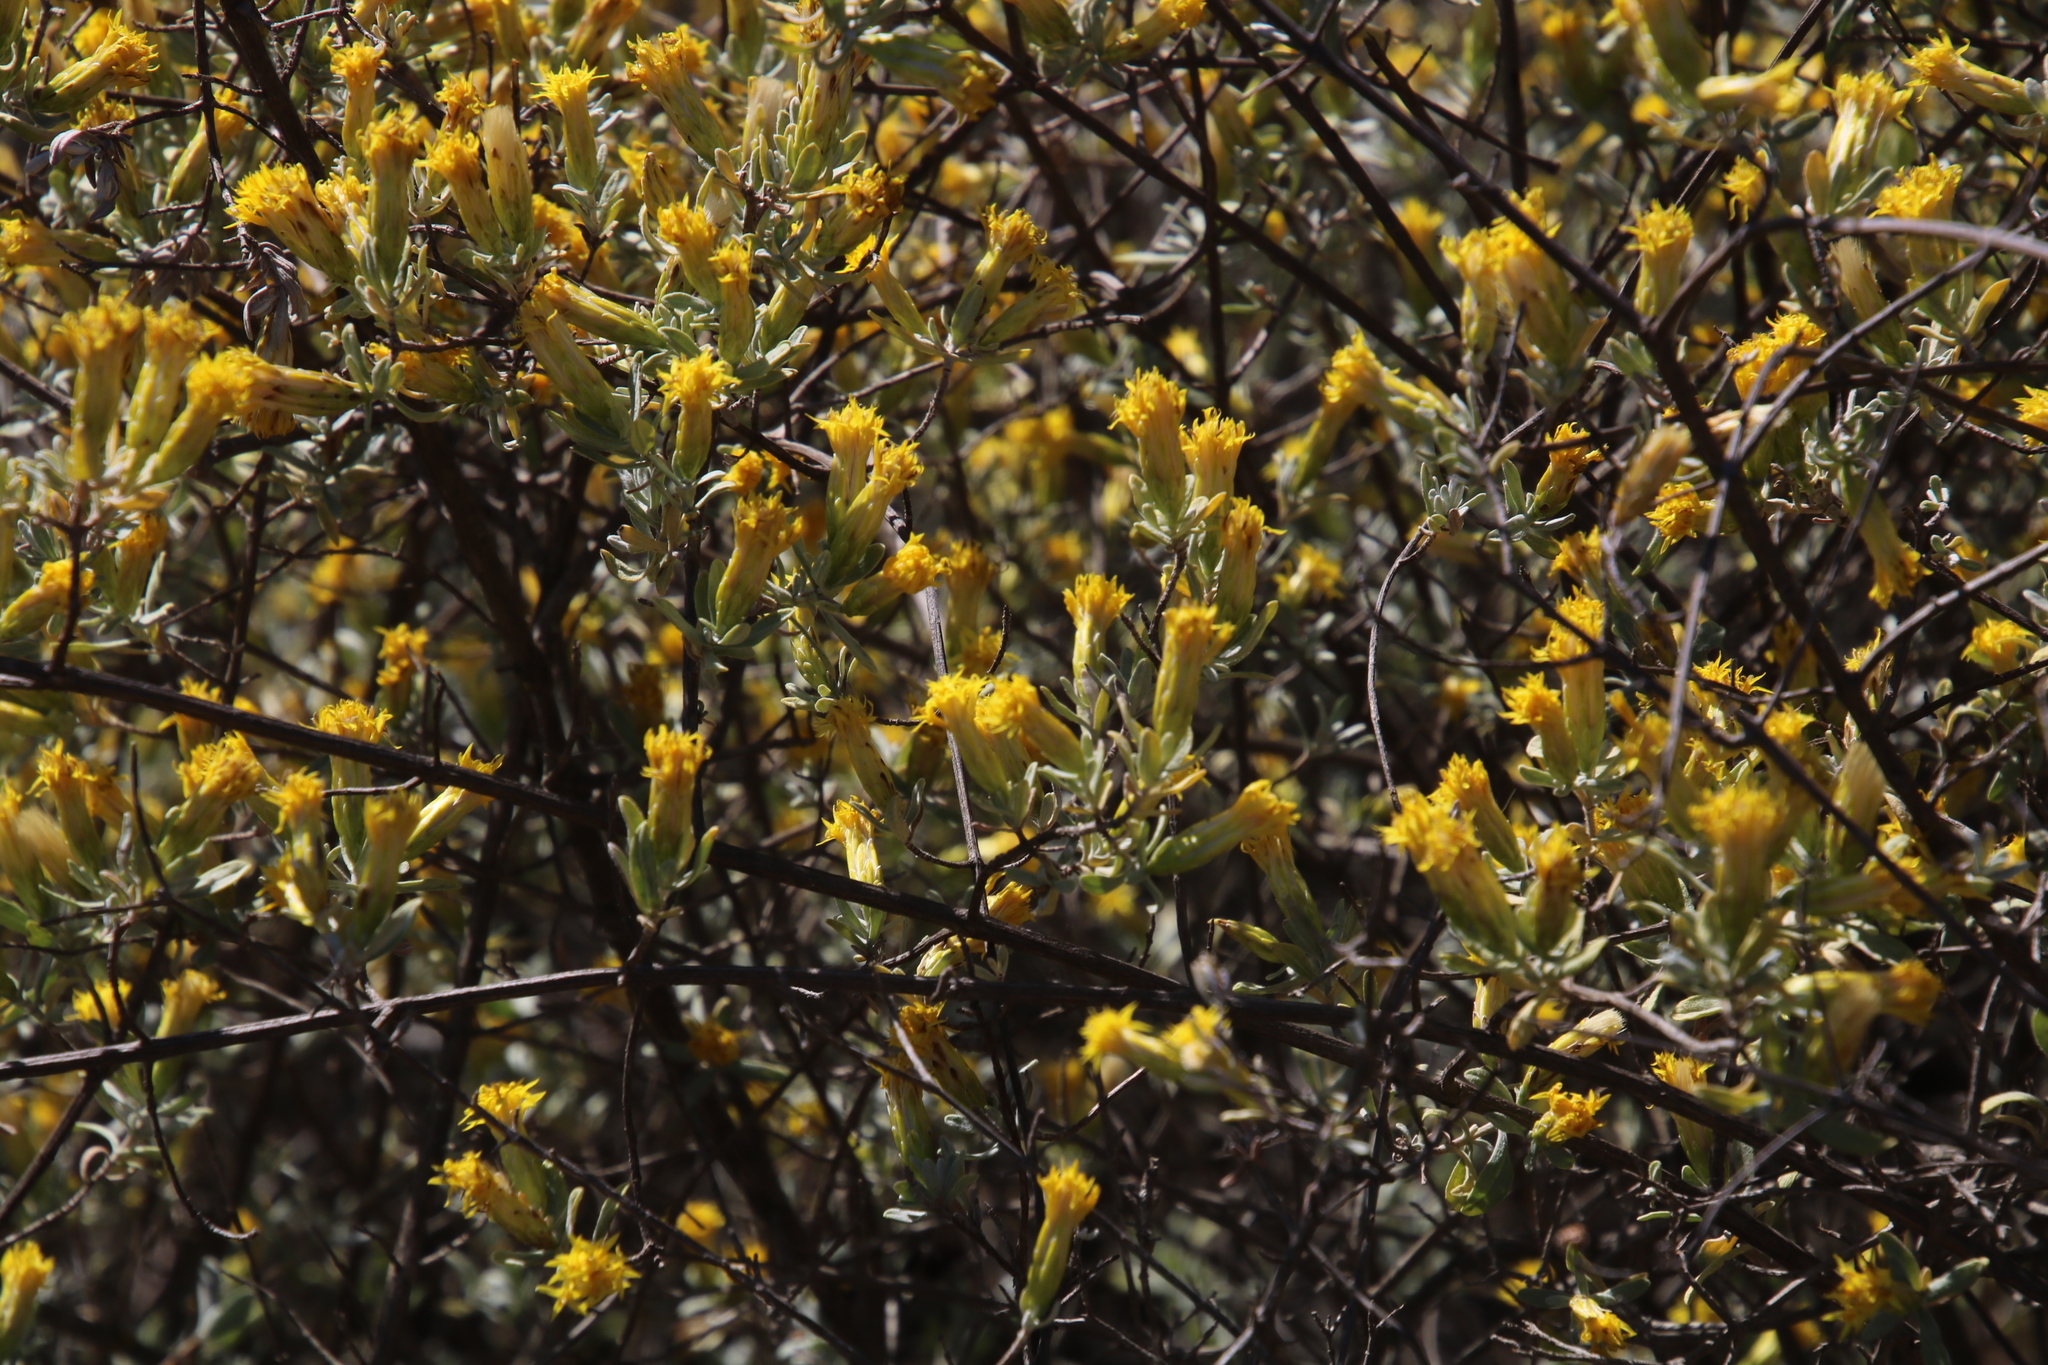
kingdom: Plantae
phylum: Tracheophyta
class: Magnoliopsida
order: Asterales
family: Asteraceae
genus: Pteronia
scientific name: Pteronia incana
